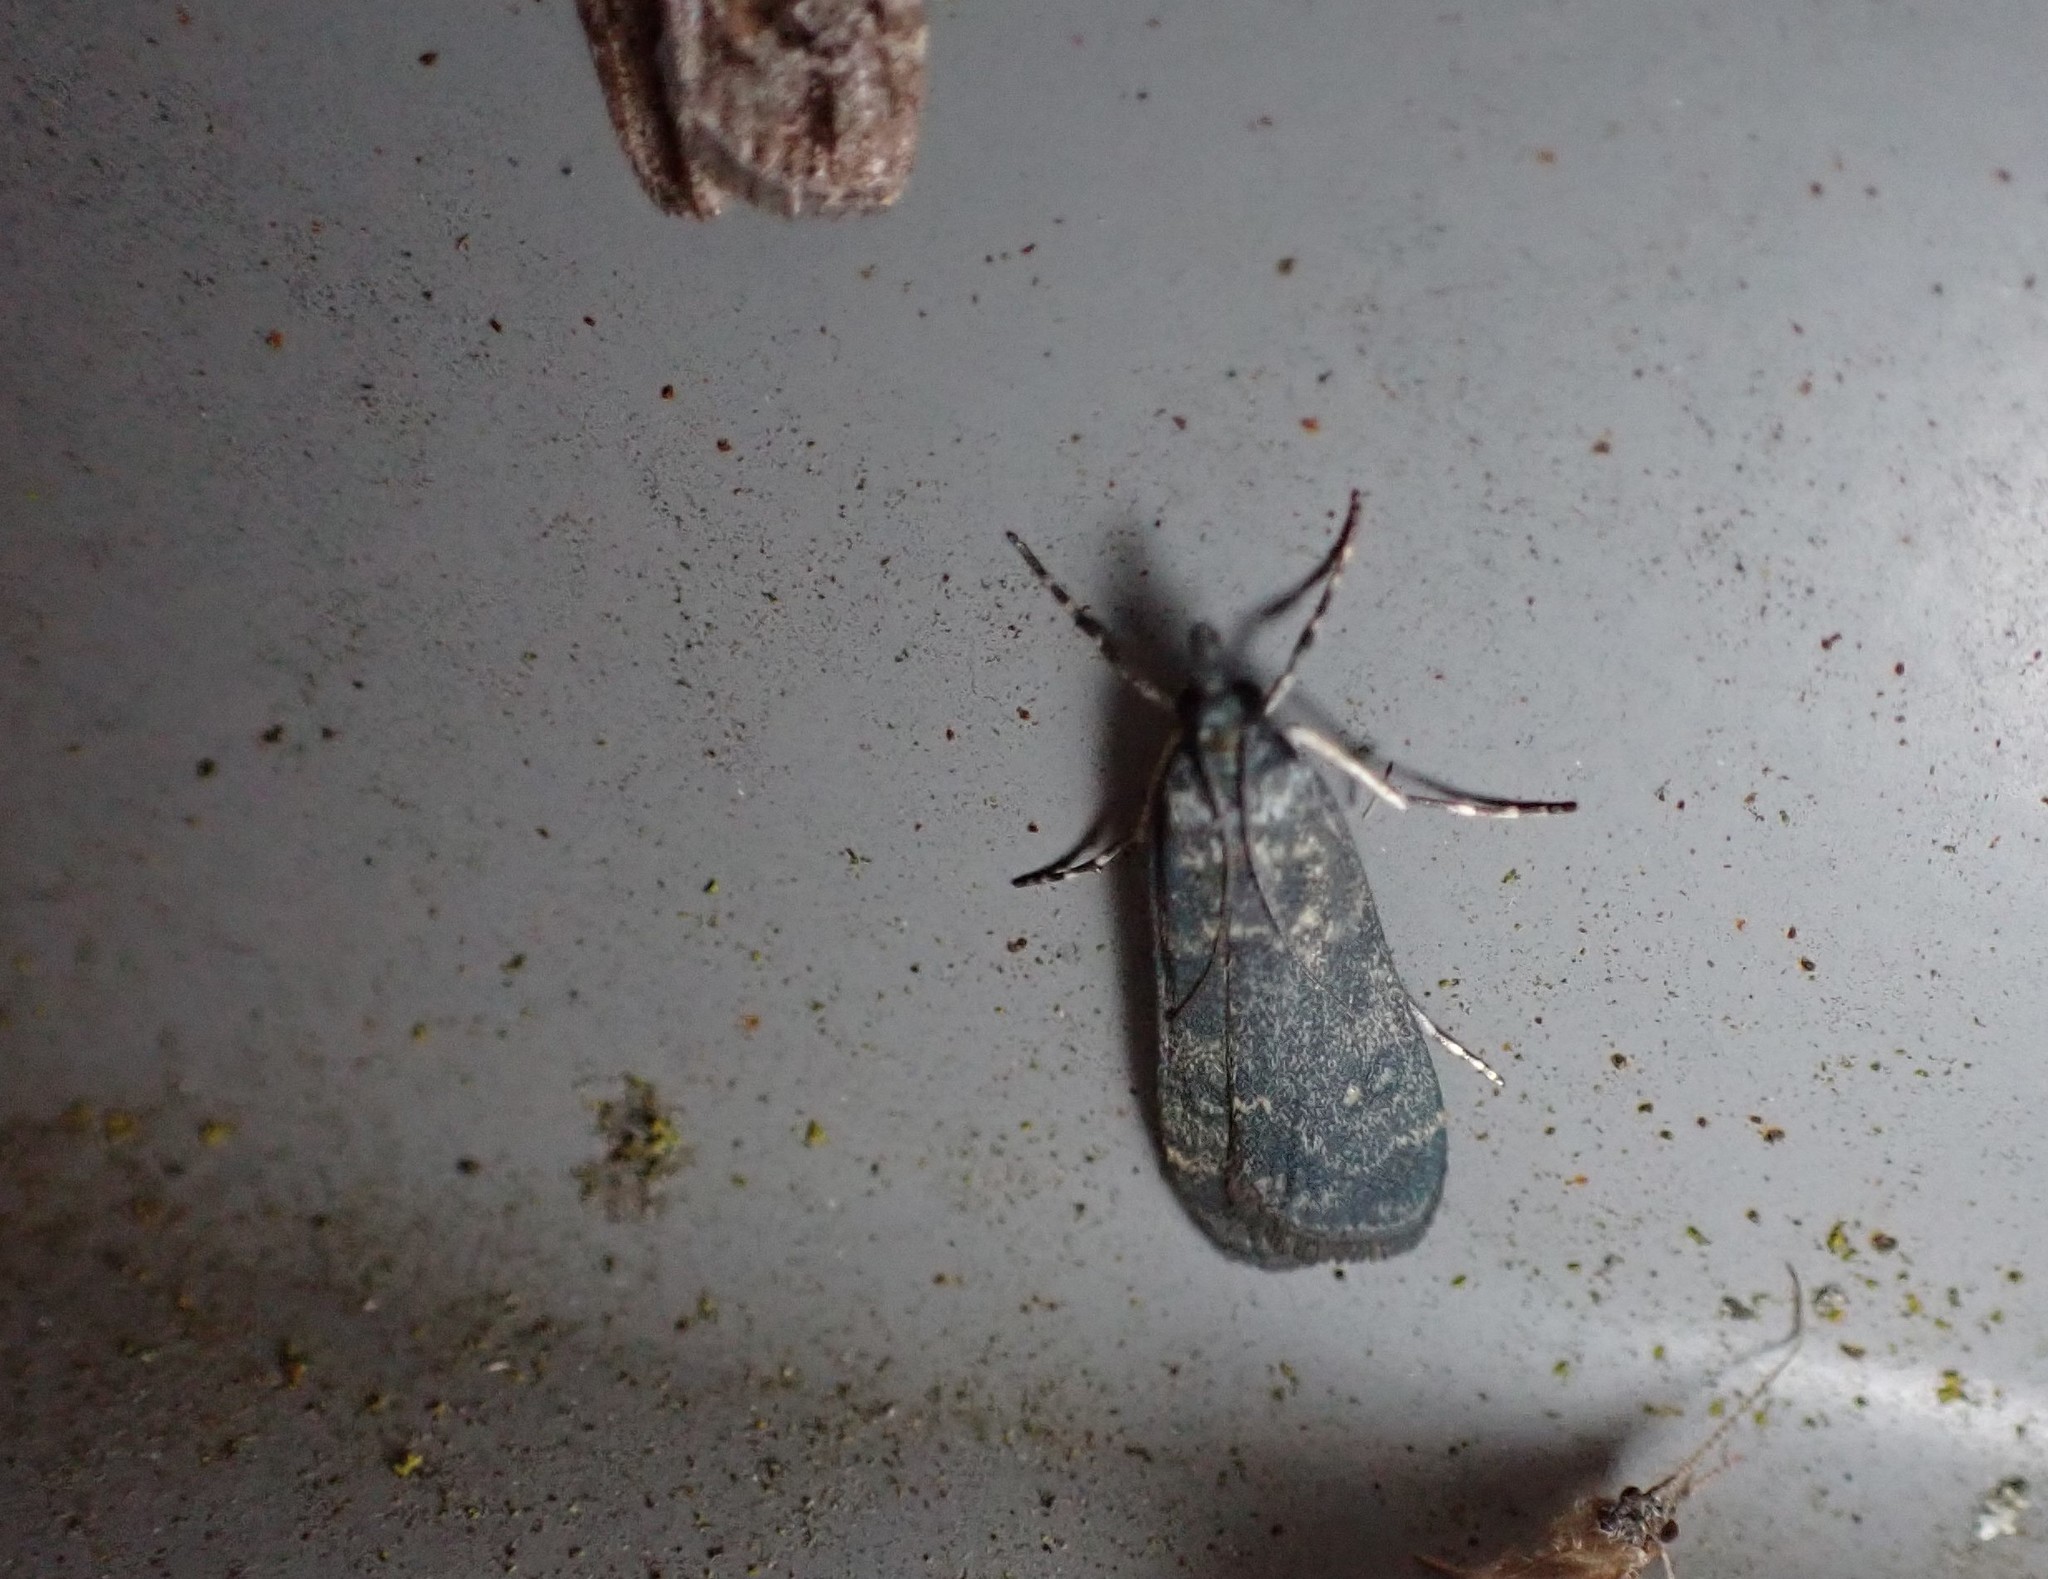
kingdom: Animalia
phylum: Arthropoda
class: Insecta
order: Lepidoptera
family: Crambidae
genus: Eudonia
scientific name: Eudonia cataxesta
